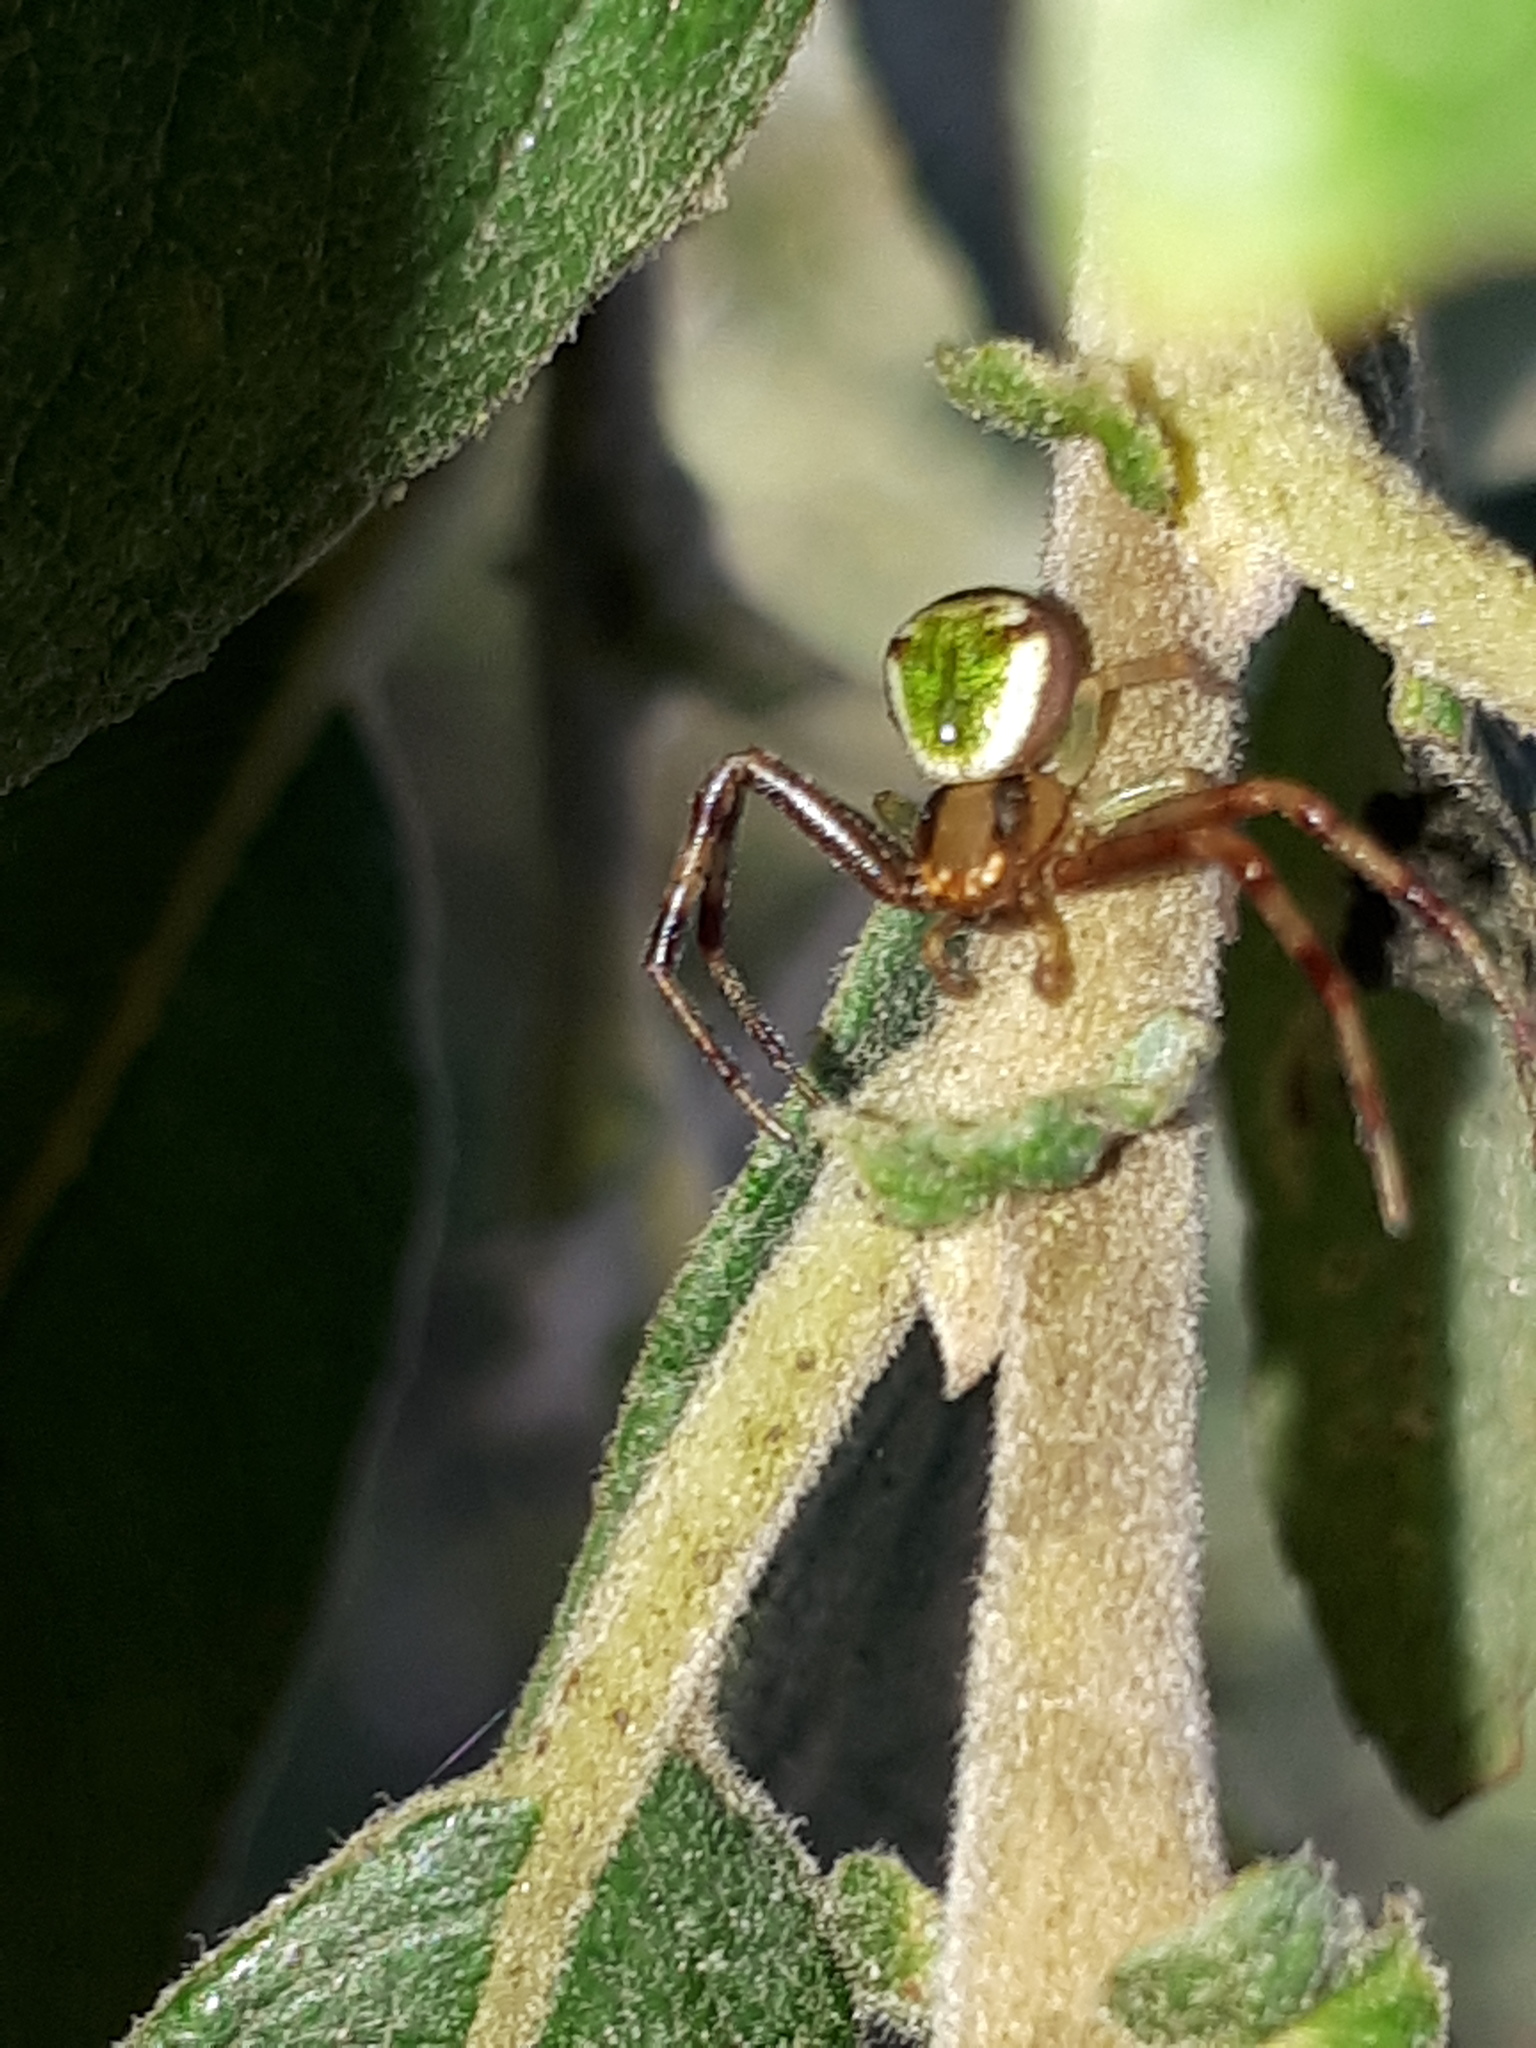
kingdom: Animalia
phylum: Arthropoda
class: Arachnida
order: Araneae
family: Thomisidae
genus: Ebrechtella
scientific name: Ebrechtella tricuspidata
